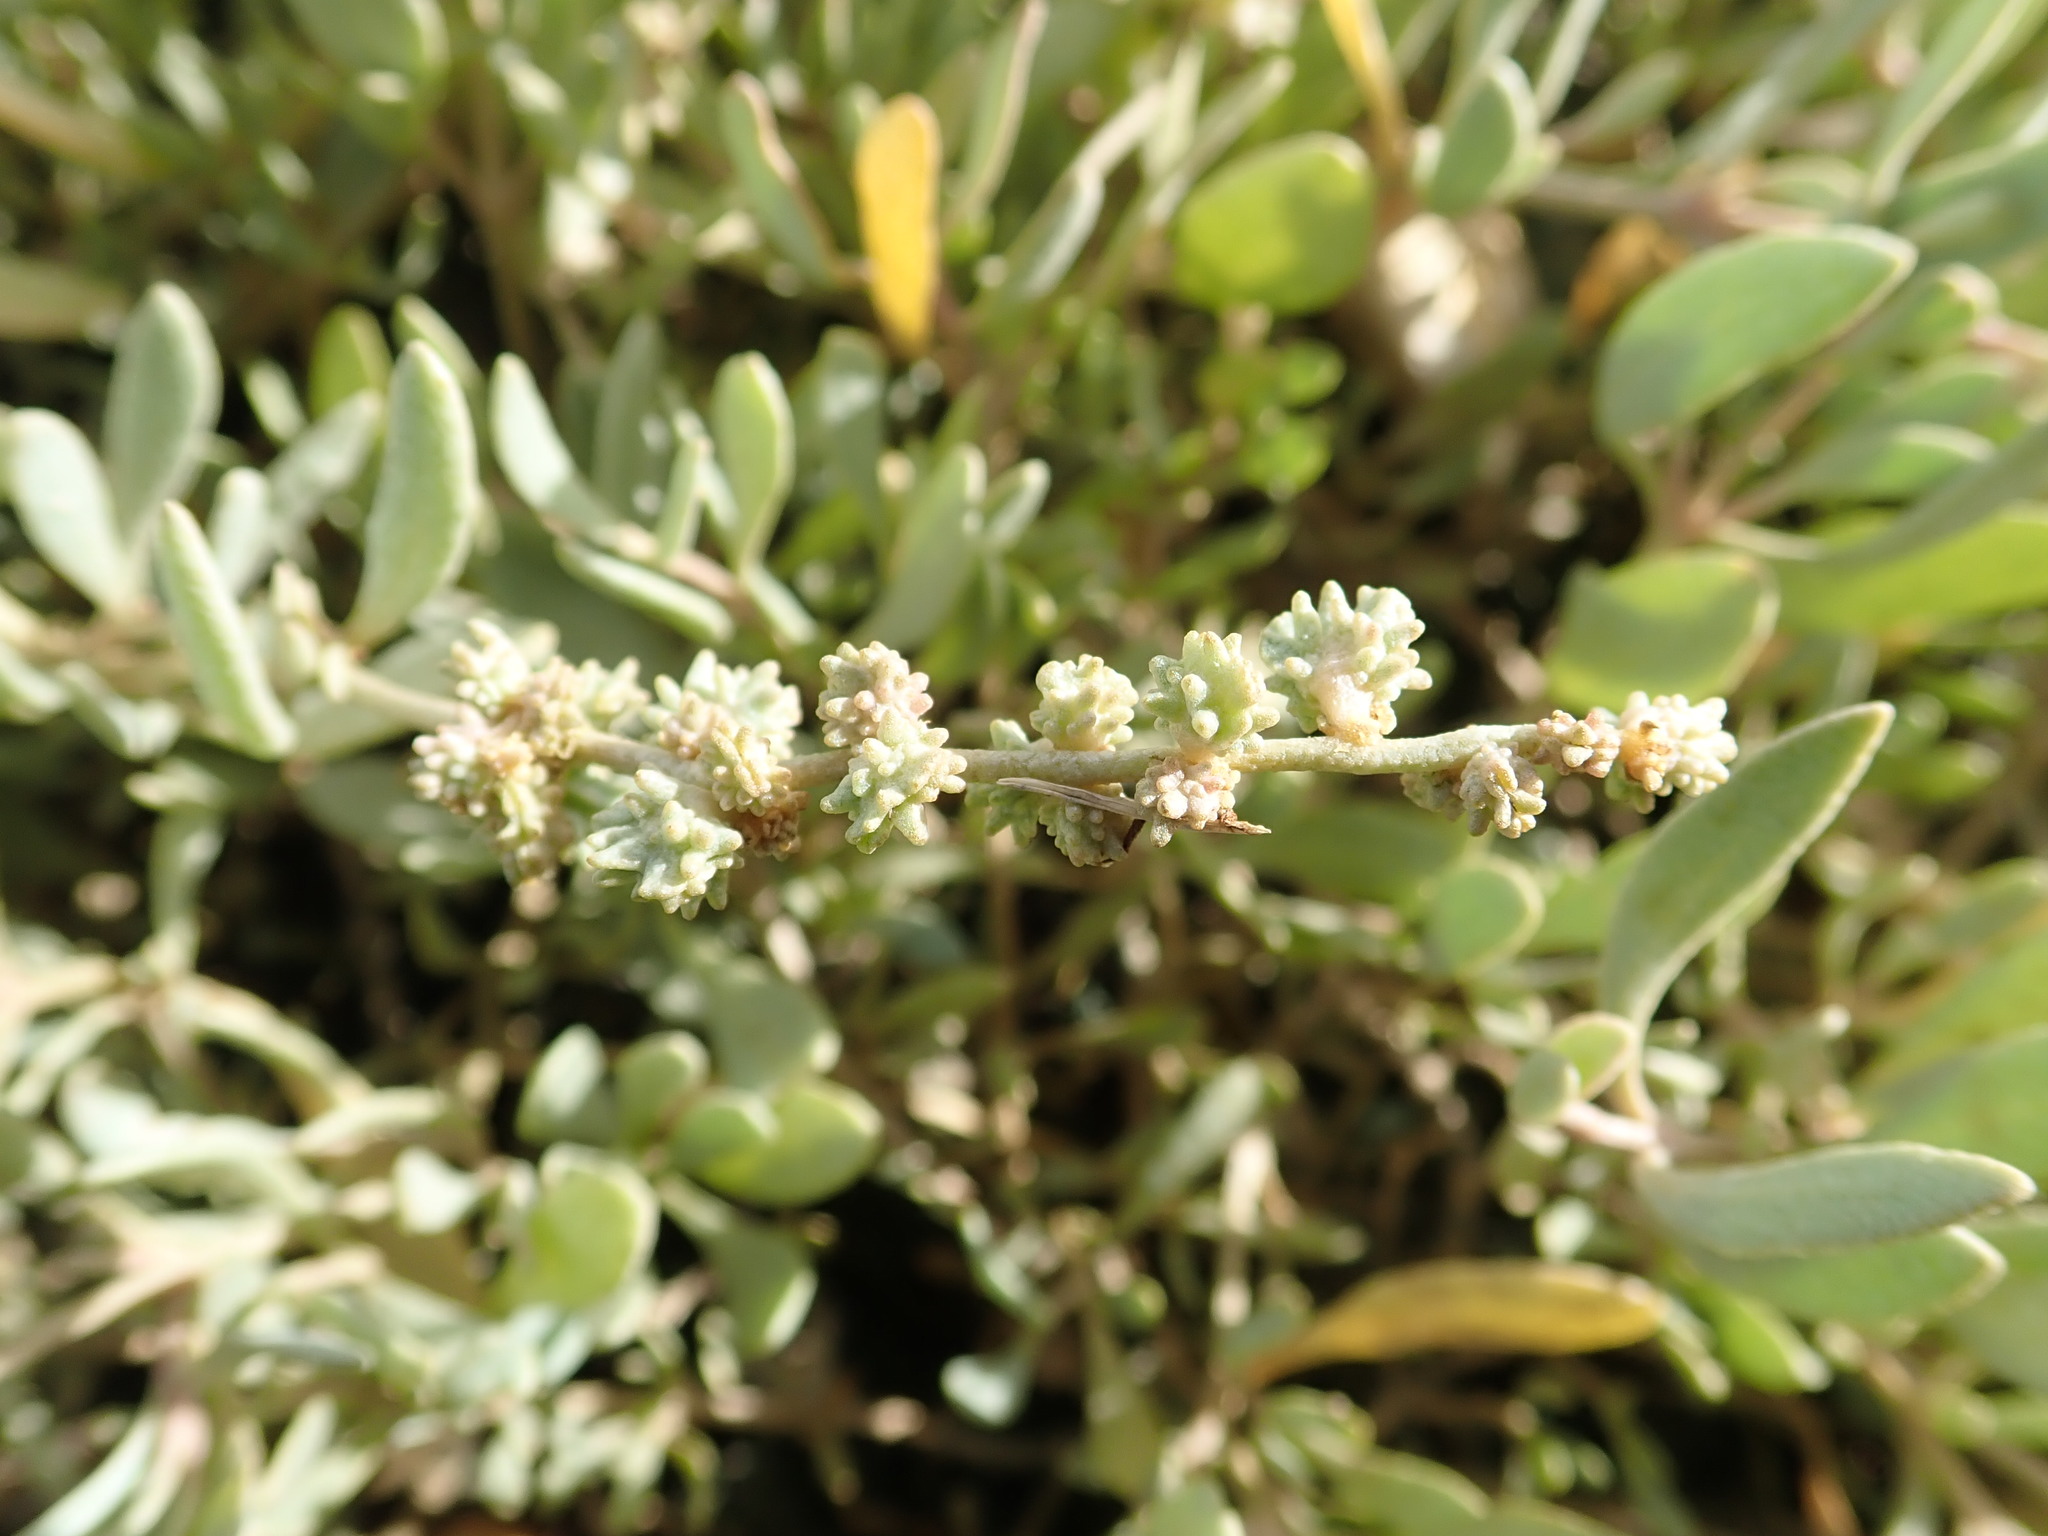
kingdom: Plantae
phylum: Tracheophyta
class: Magnoliopsida
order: Caryophyllales
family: Amaranthaceae
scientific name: Amaranthaceae
